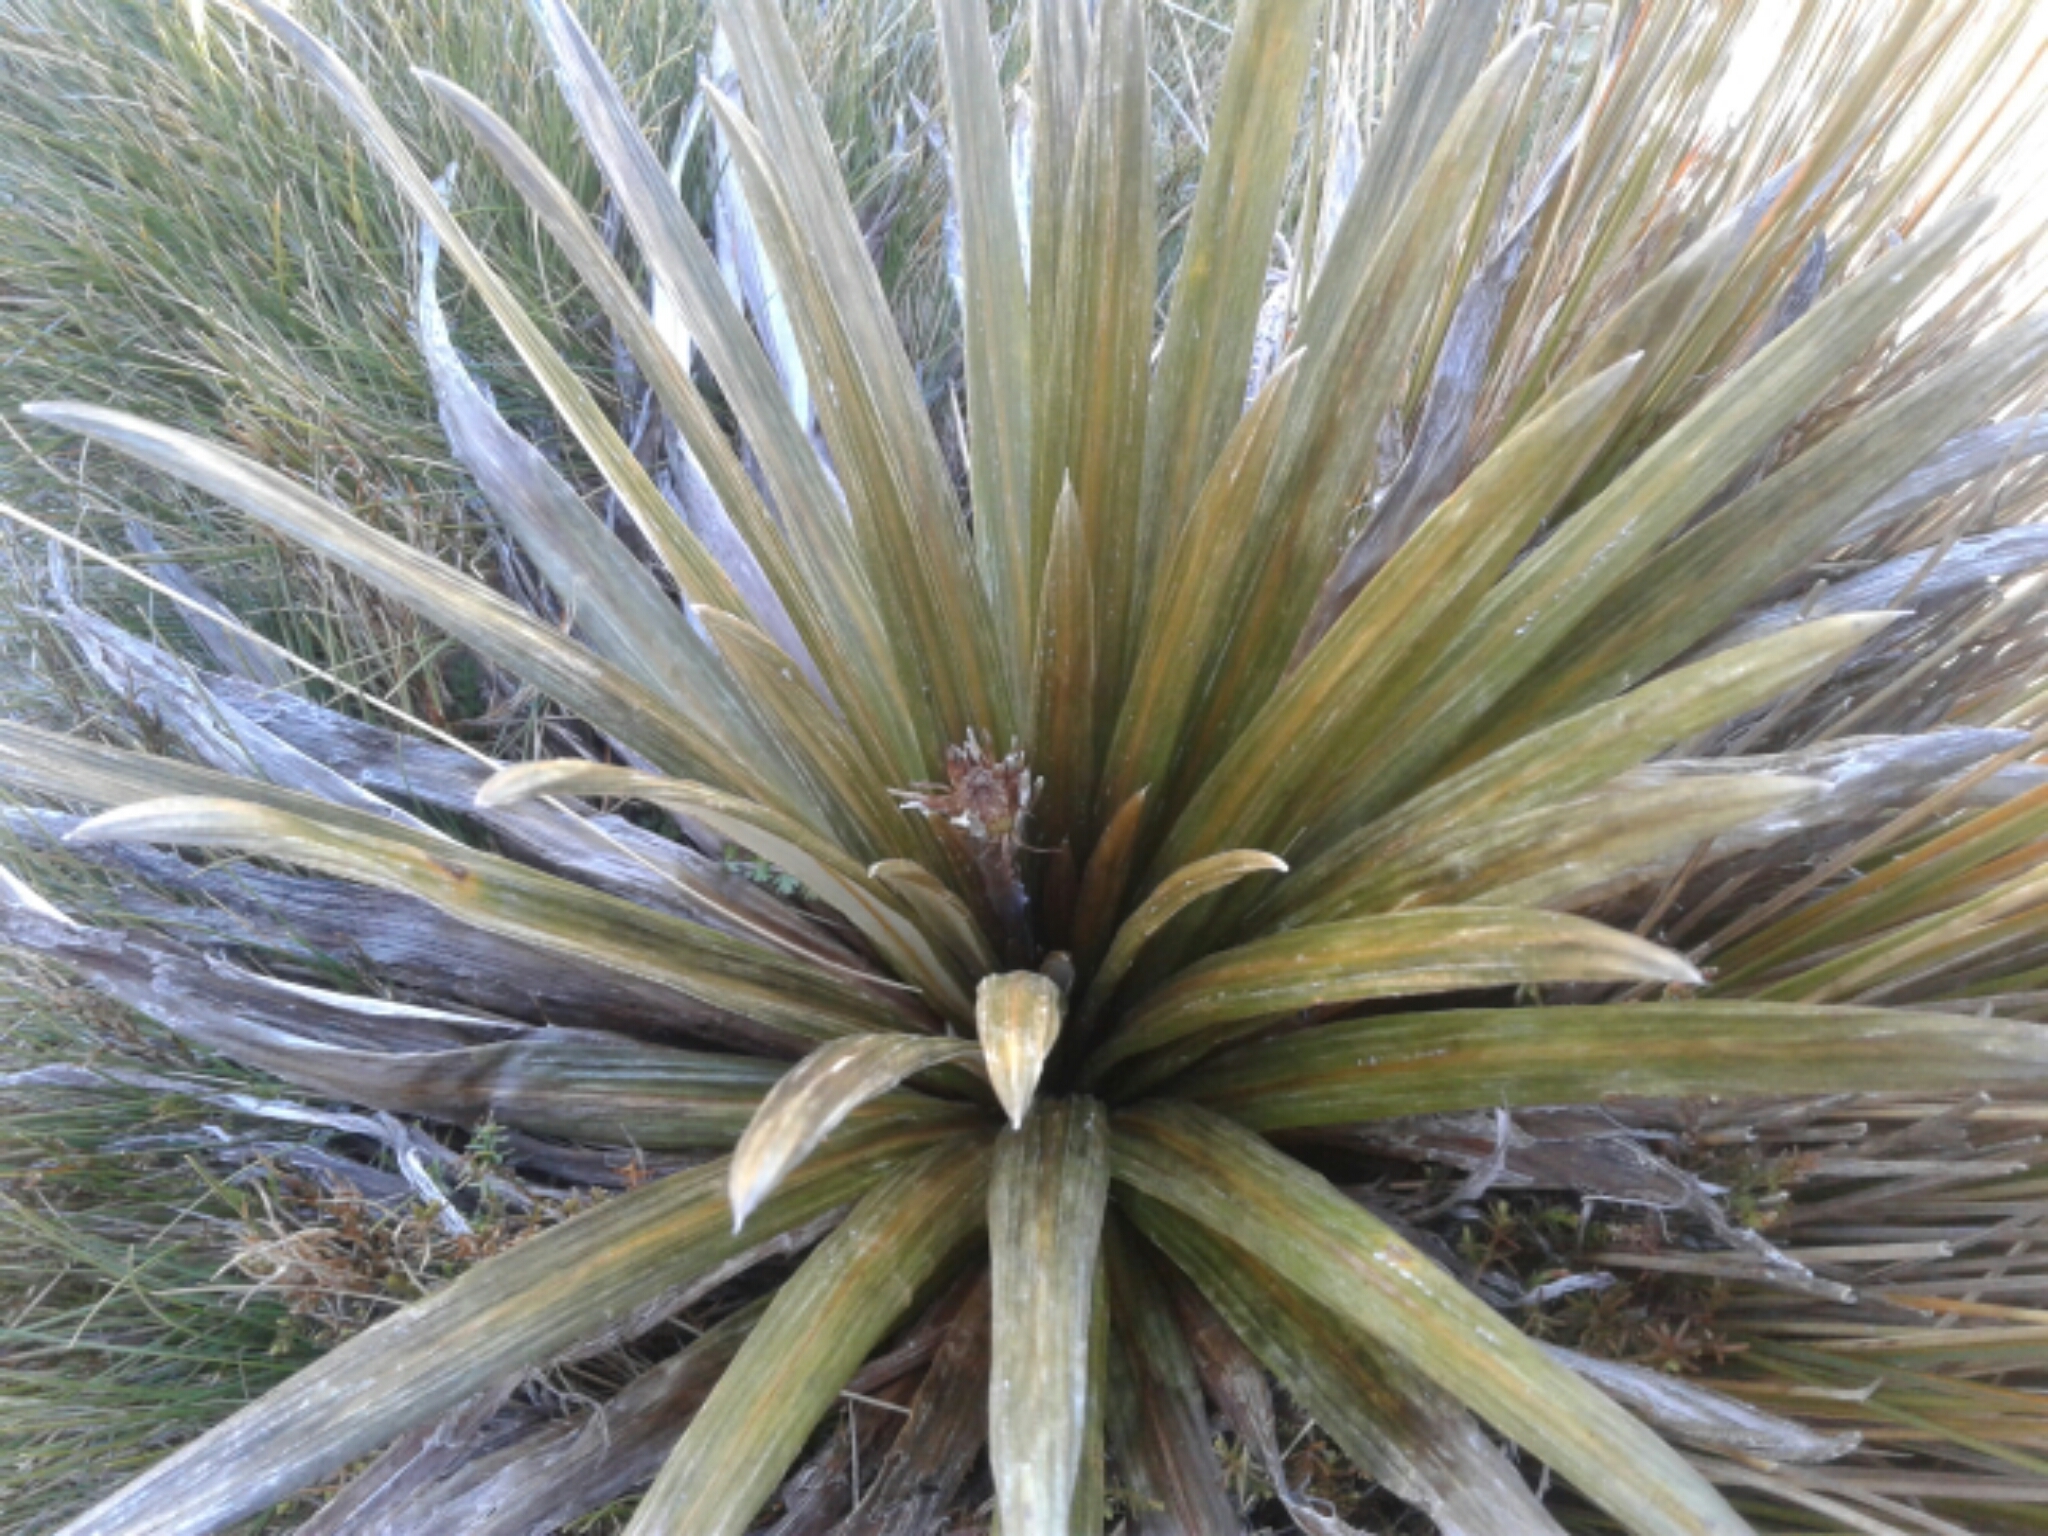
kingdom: Plantae
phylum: Tracheophyta
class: Magnoliopsida
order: Asterales
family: Asteraceae
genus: Celmisia
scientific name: Celmisia armstrongii
